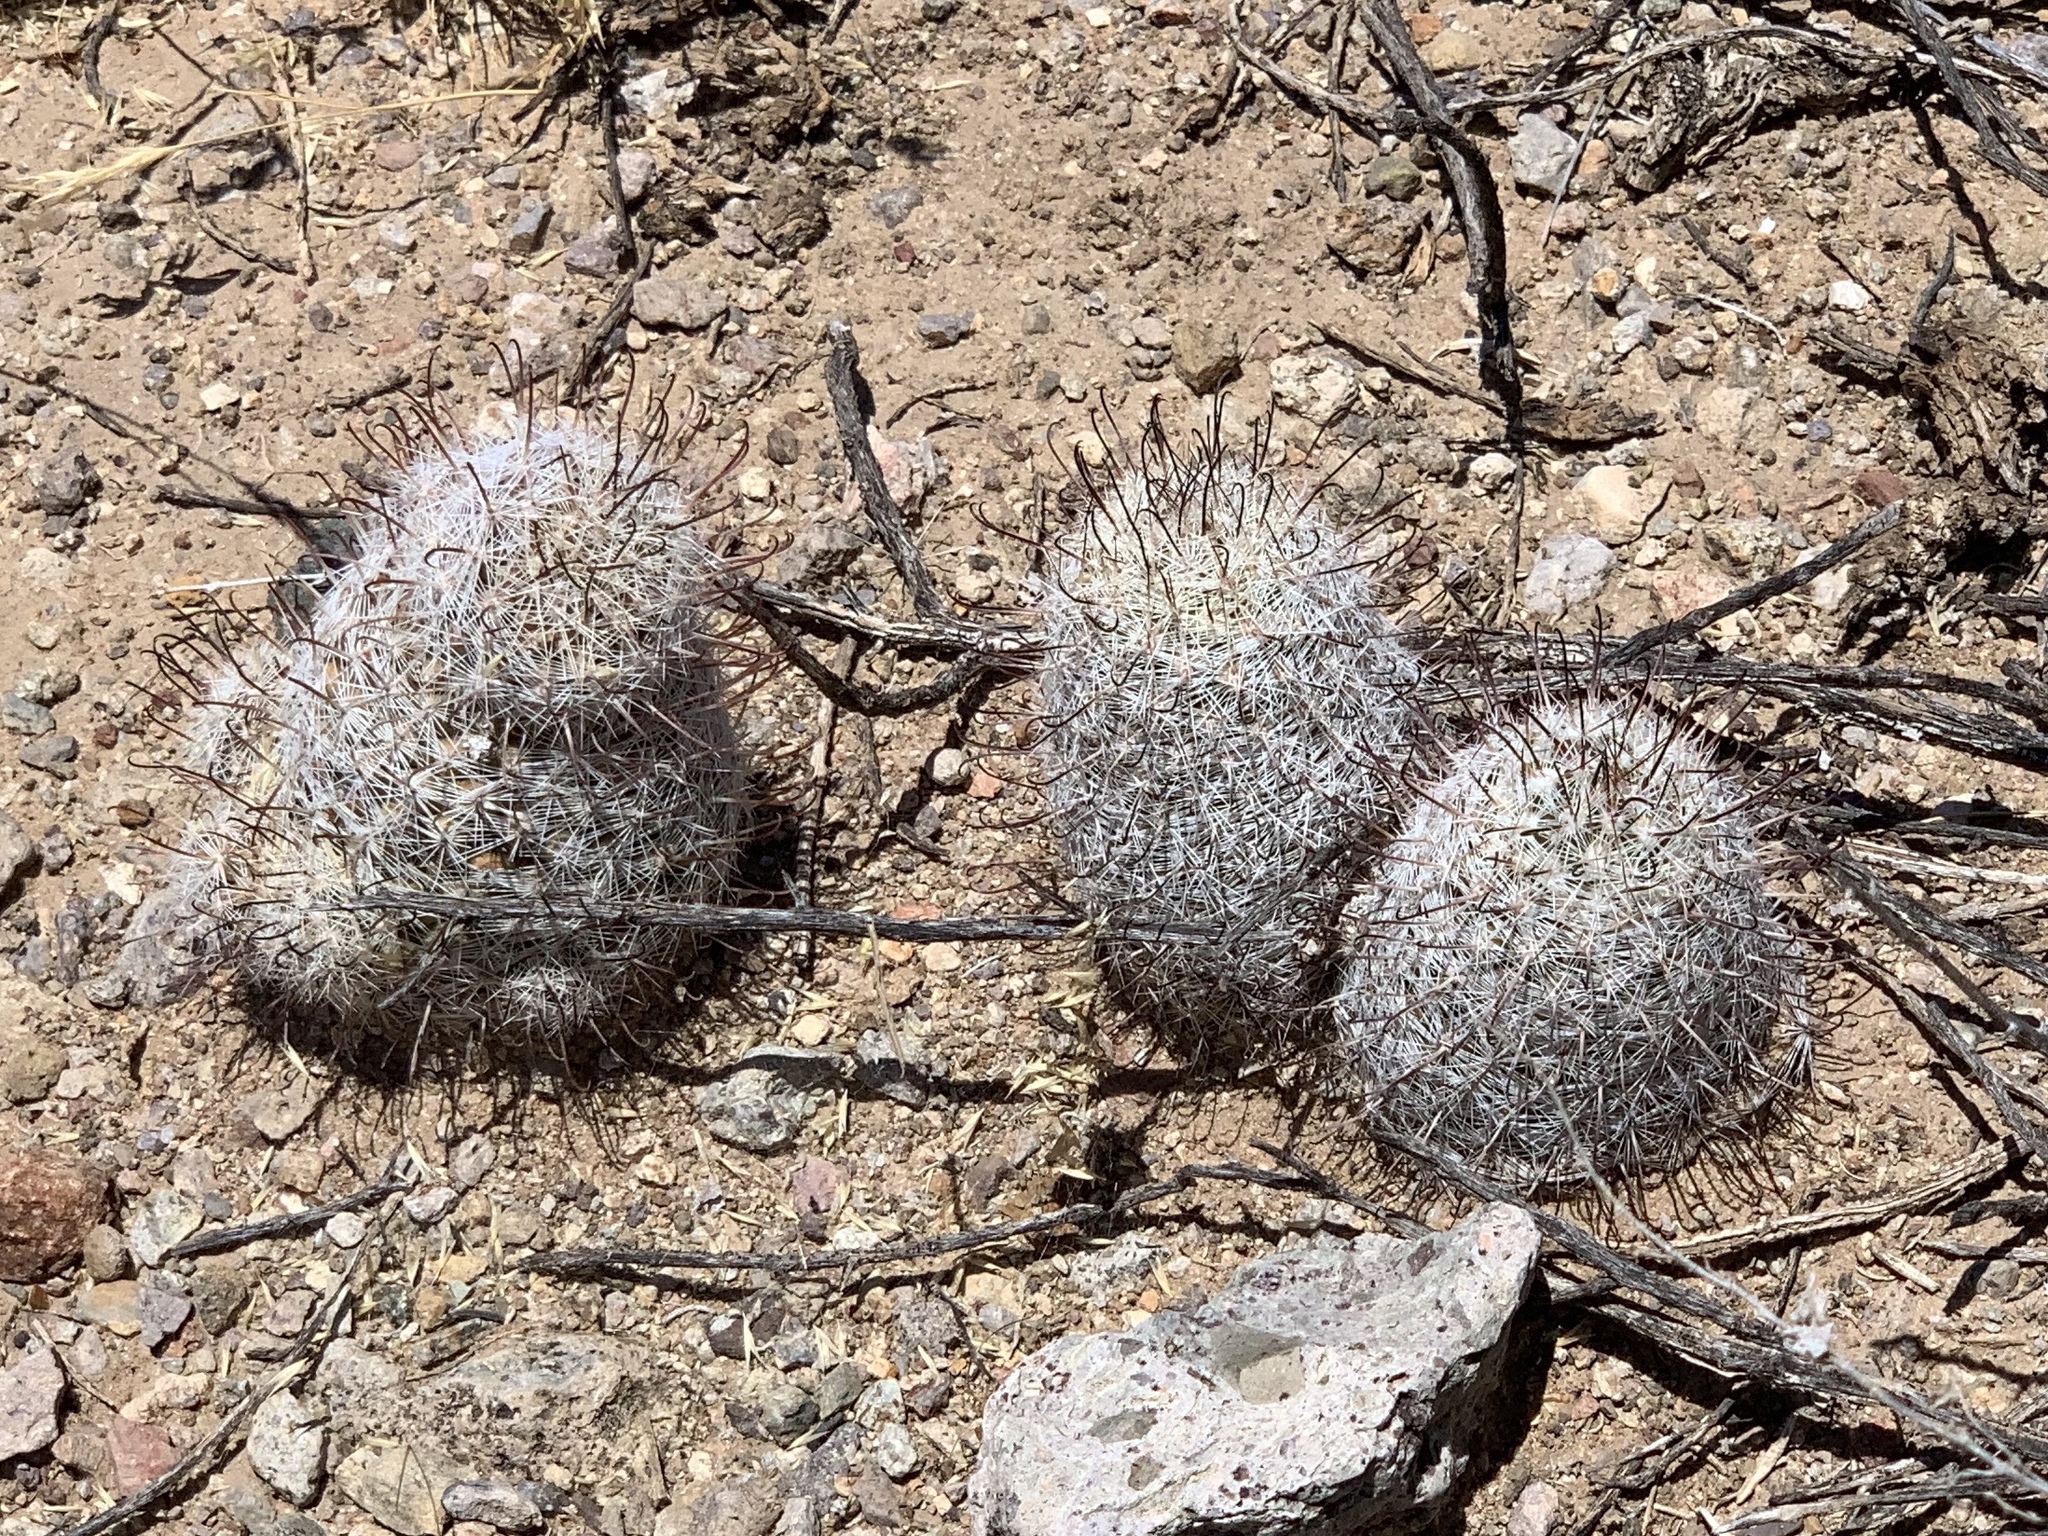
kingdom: Plantae
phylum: Tracheophyta
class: Magnoliopsida
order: Caryophyllales
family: Cactaceae
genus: Cochemiea
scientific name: Cochemiea grahamii
